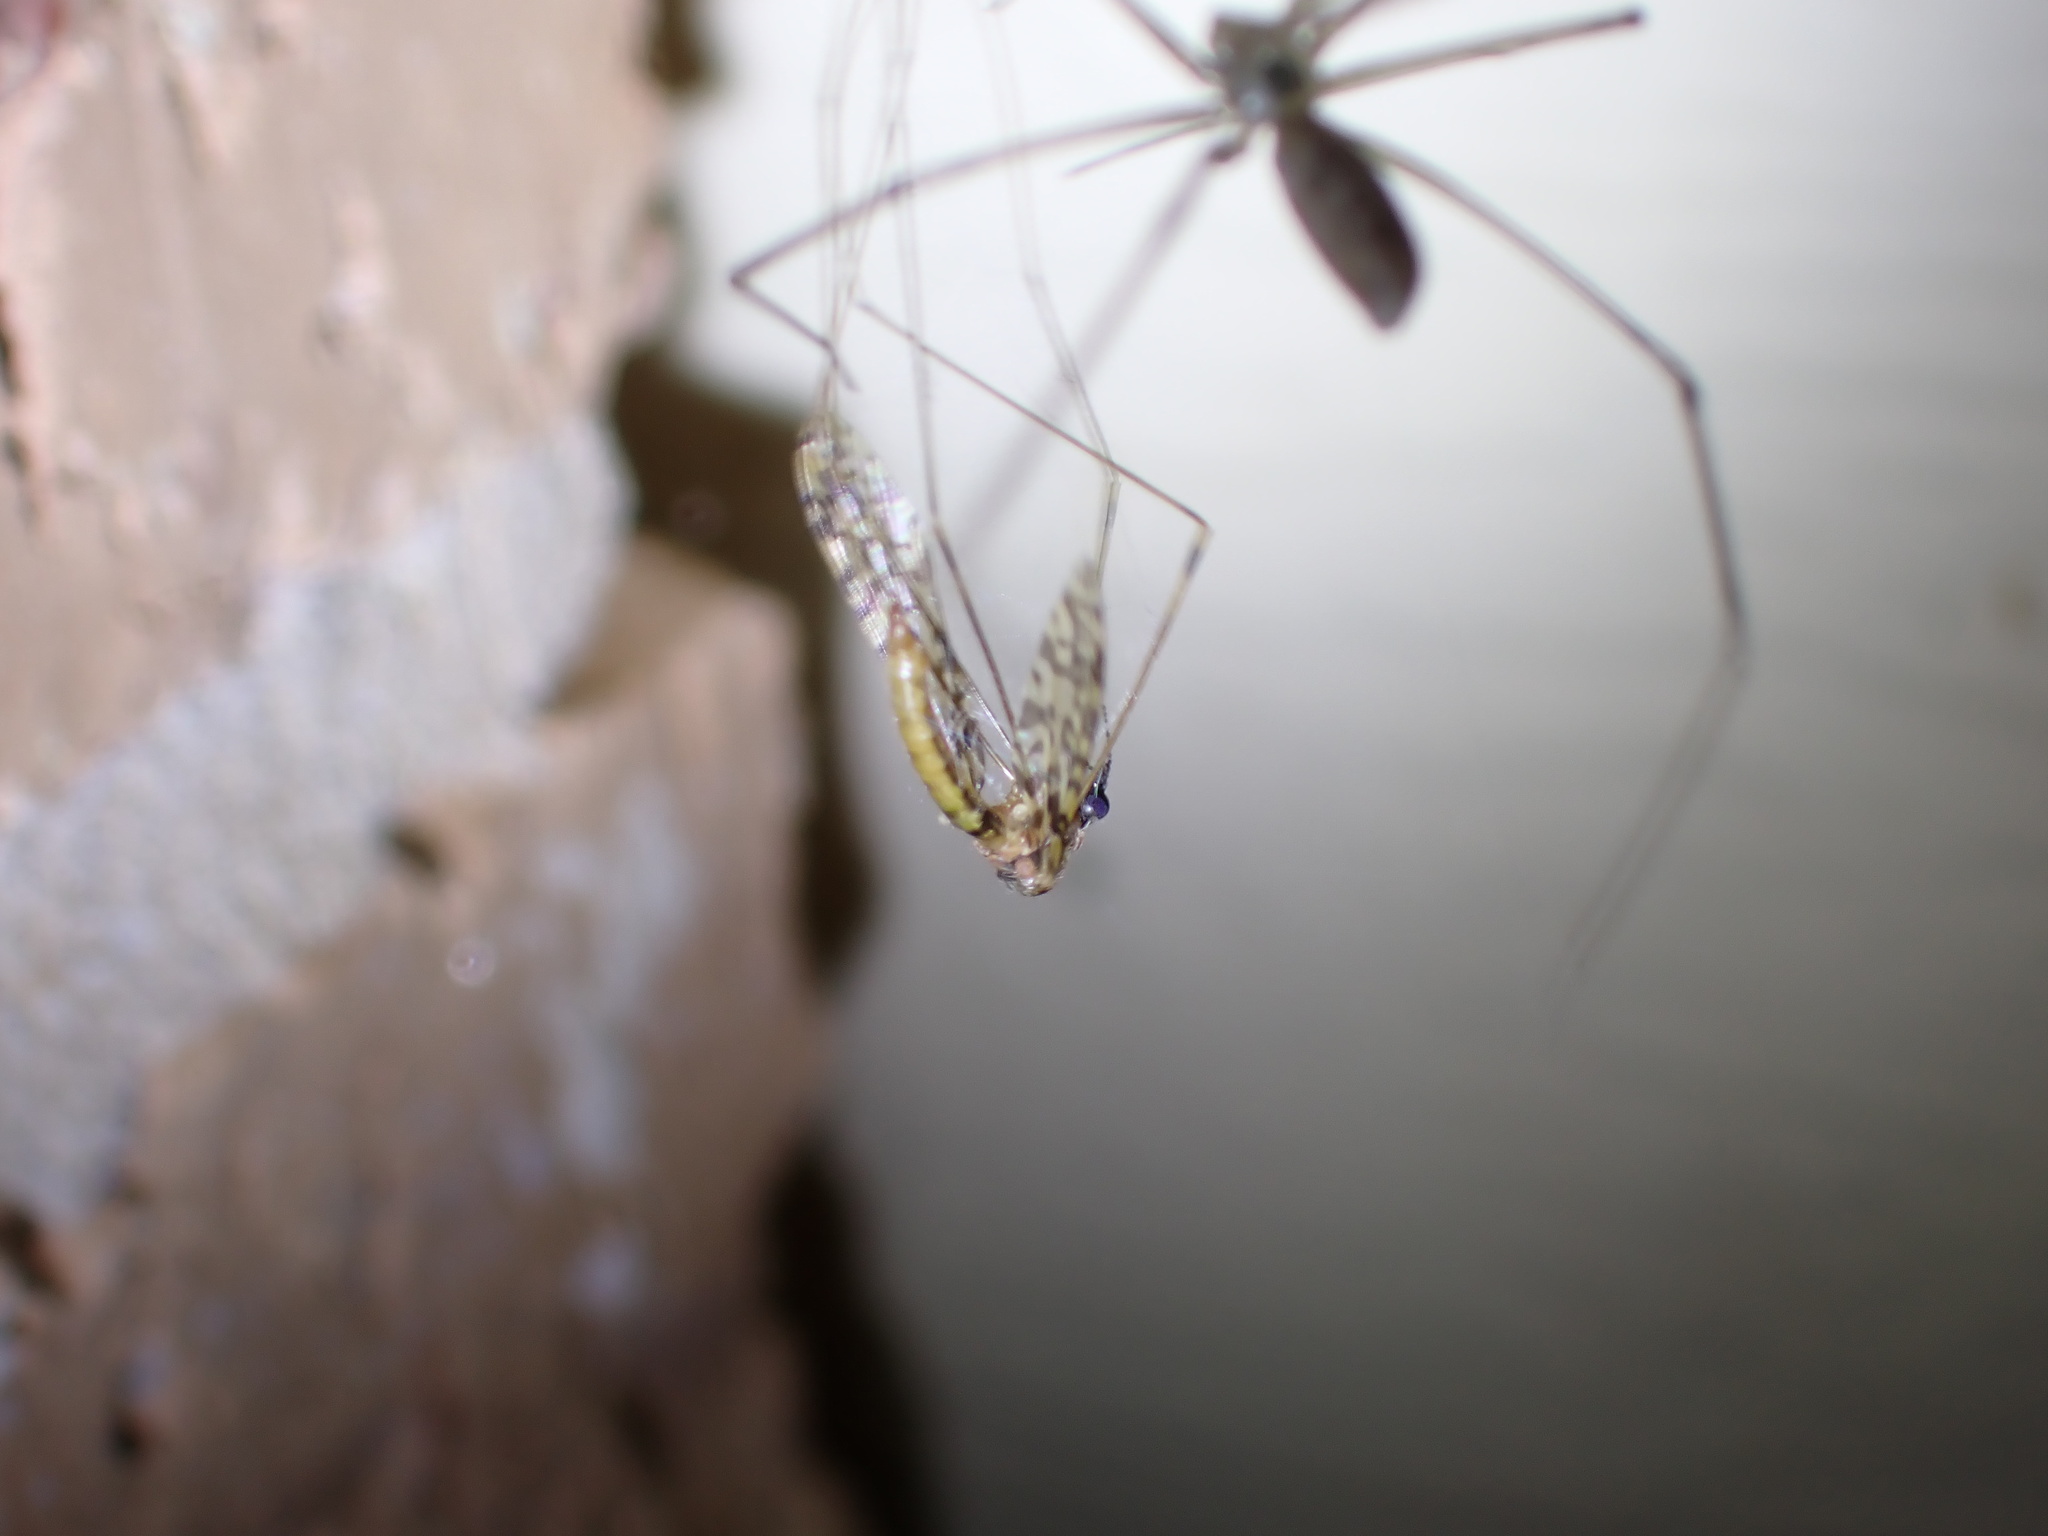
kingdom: Animalia
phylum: Arthropoda
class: Insecta
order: Diptera
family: Limoniidae
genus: Discobola
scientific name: Discobola australis
